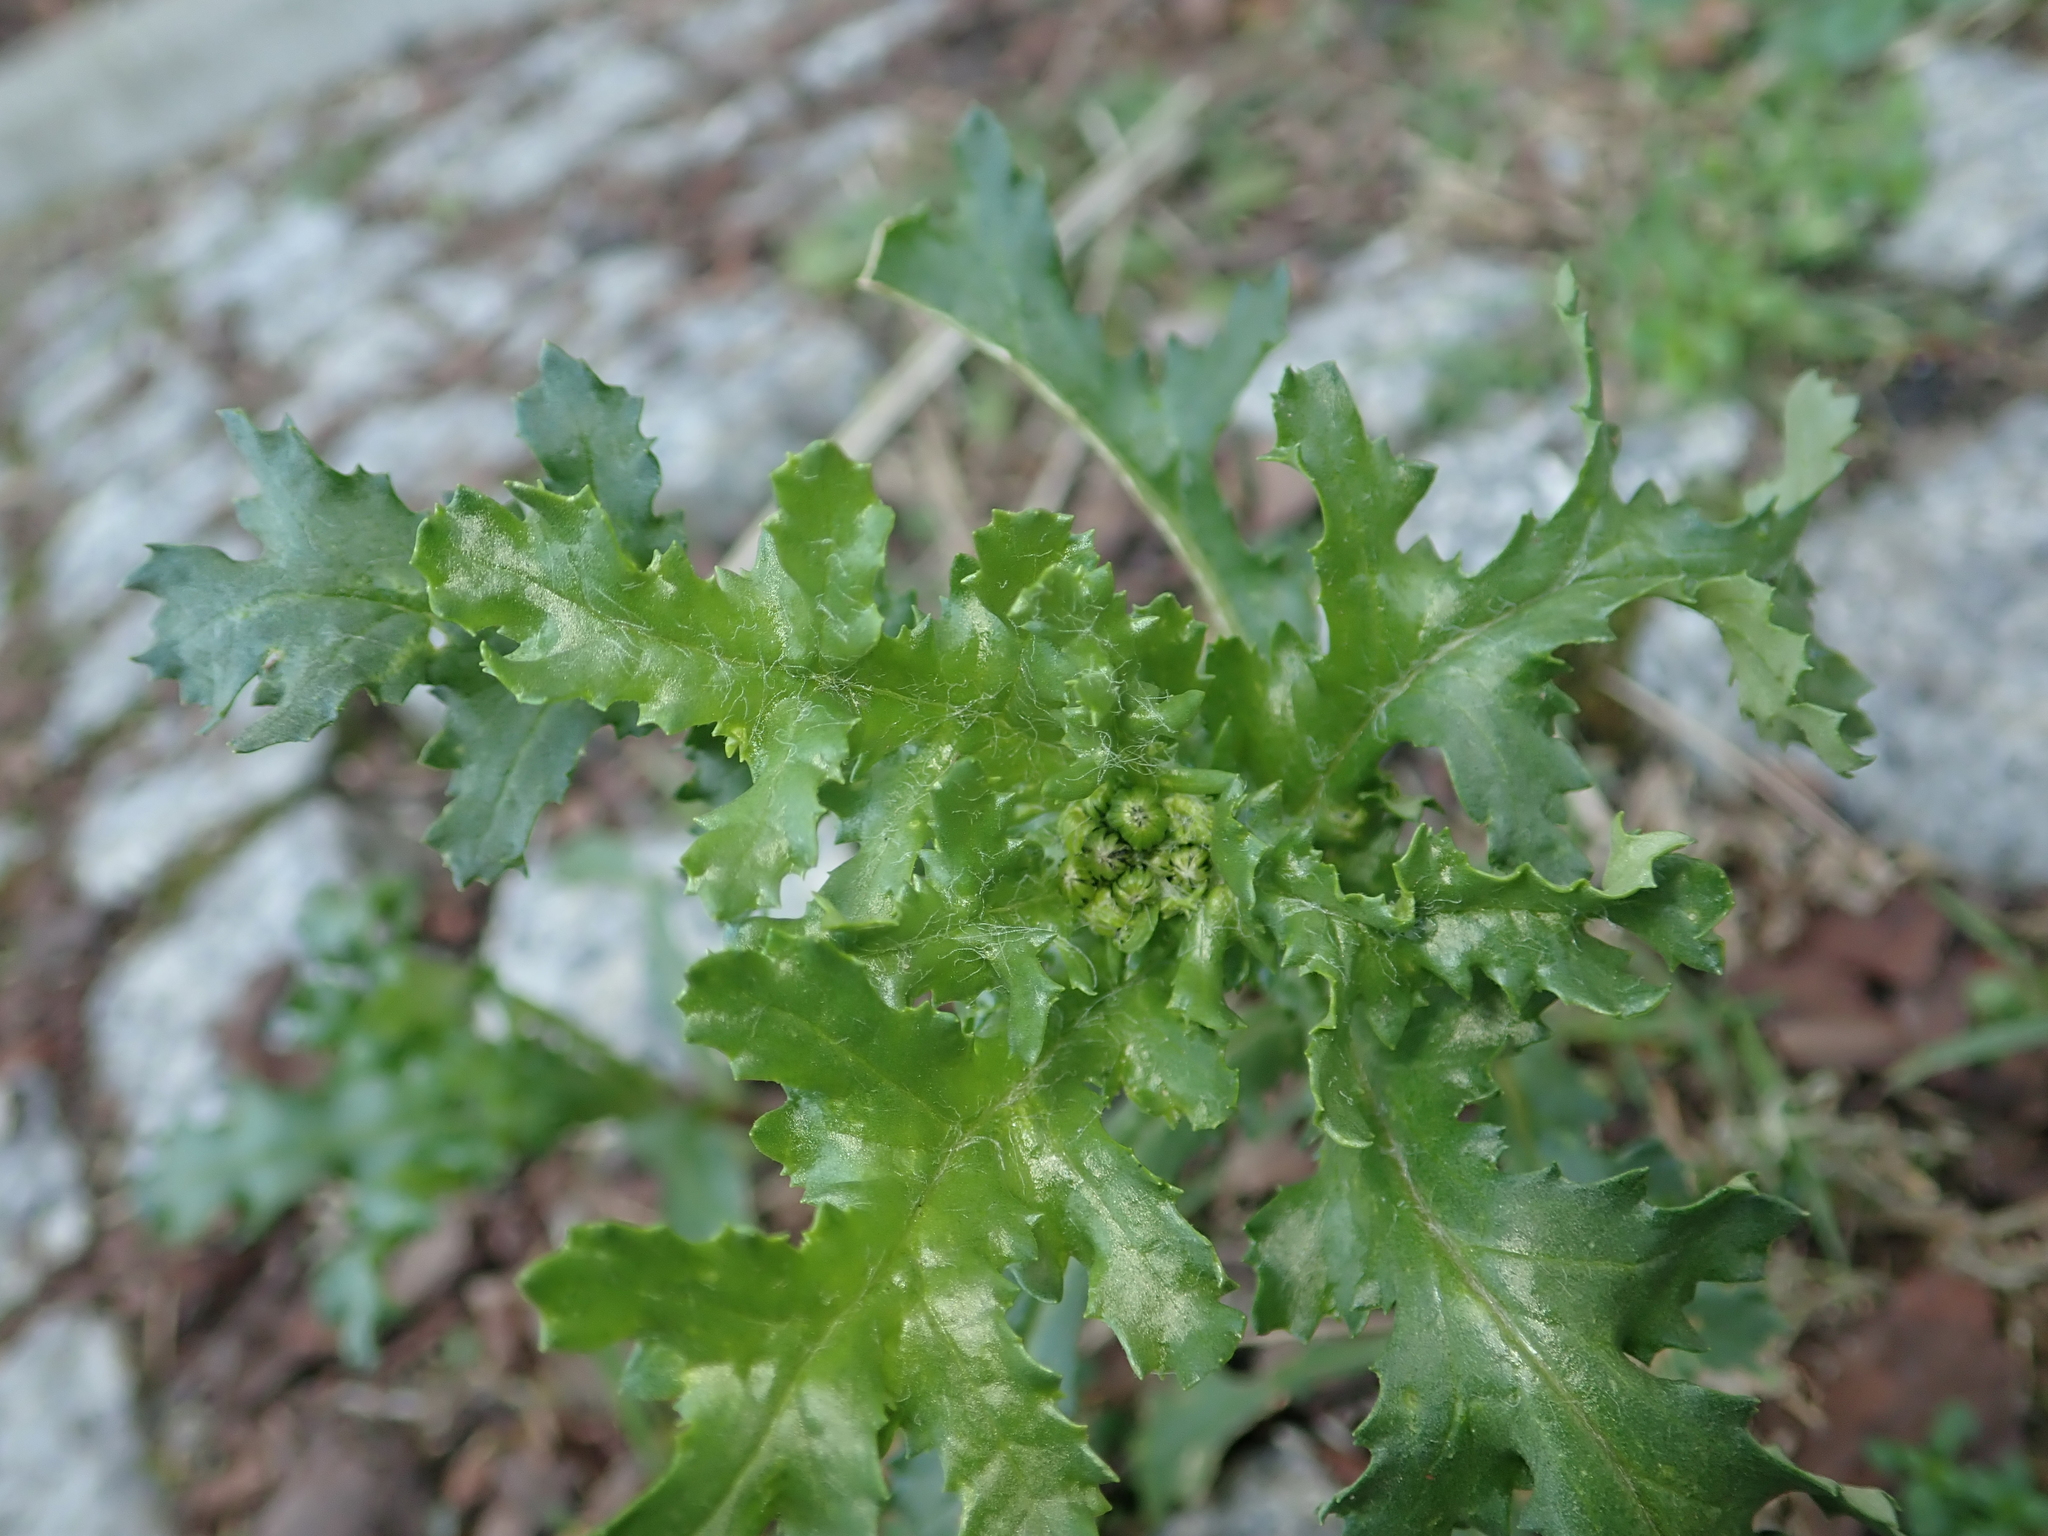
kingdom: Plantae
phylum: Tracheophyta
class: Magnoliopsida
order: Asterales
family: Asteraceae
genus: Senecio
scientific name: Senecio vulgaris
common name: Old-man-in-the-spring
